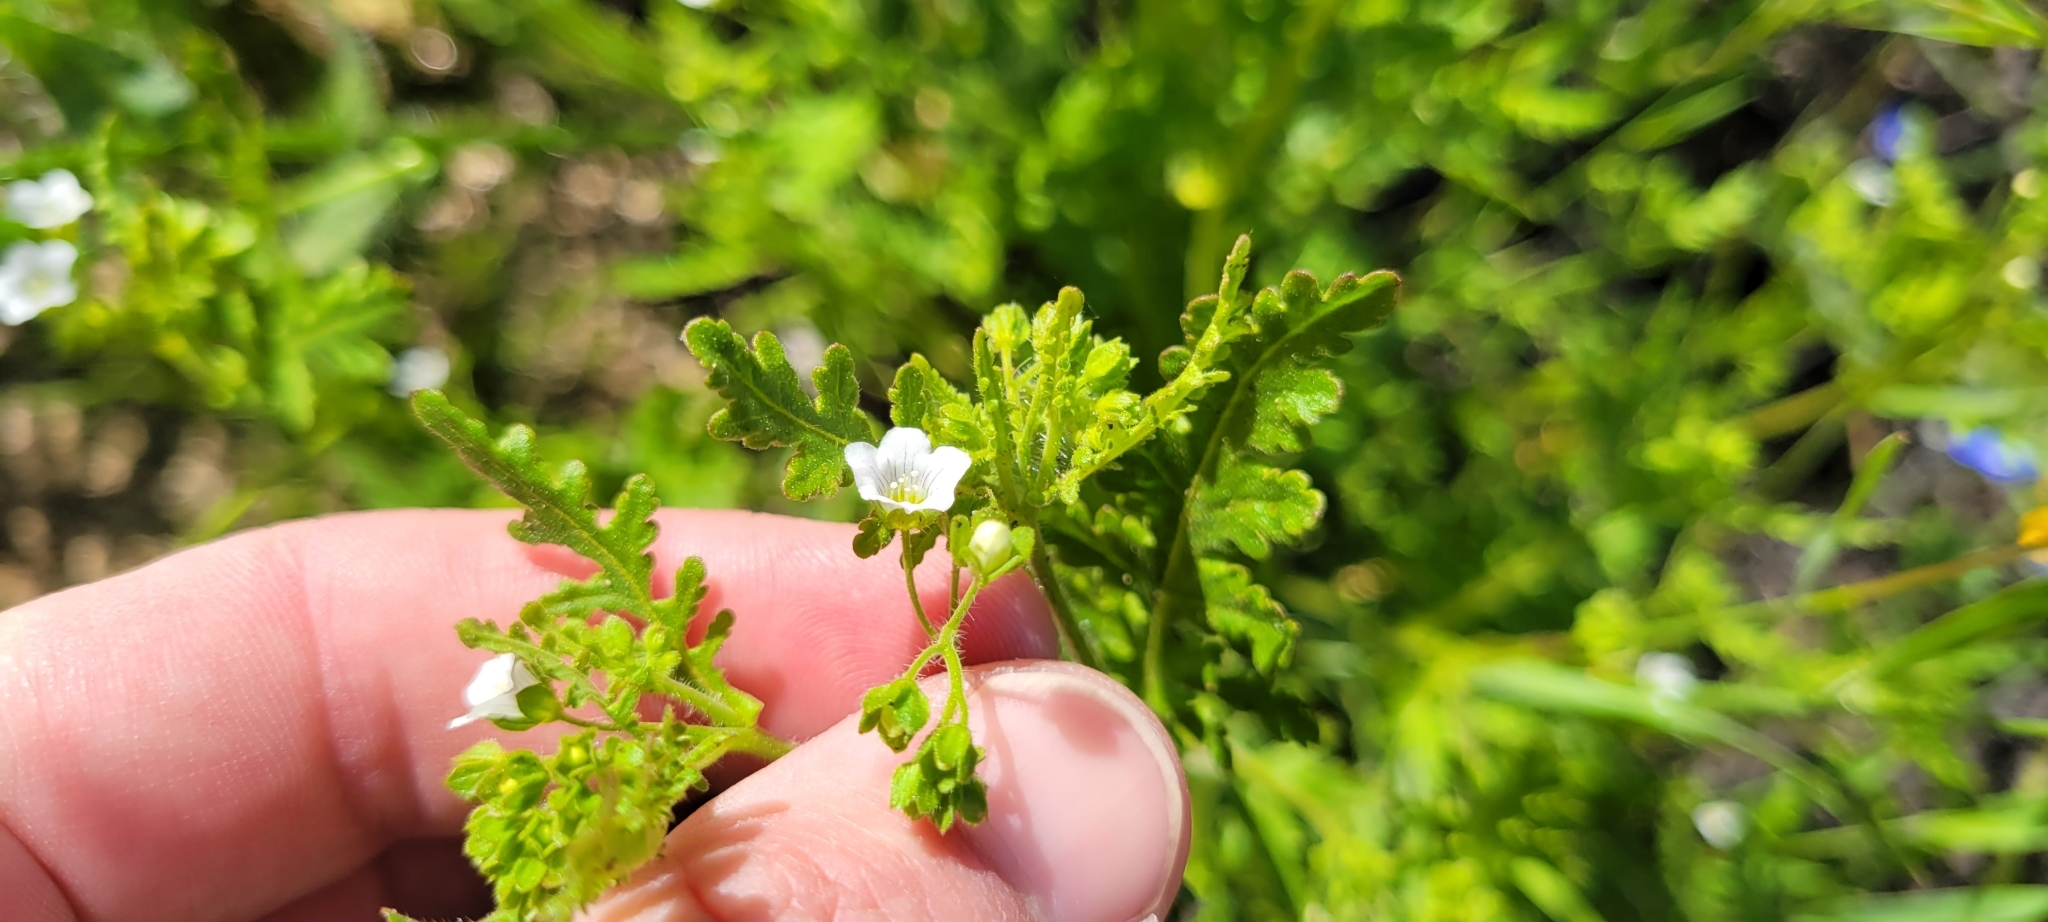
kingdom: Plantae
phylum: Tracheophyta
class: Magnoliopsida
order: Boraginales
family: Hydrophyllaceae
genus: Eucrypta
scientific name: Eucrypta chrysanthemifolia
